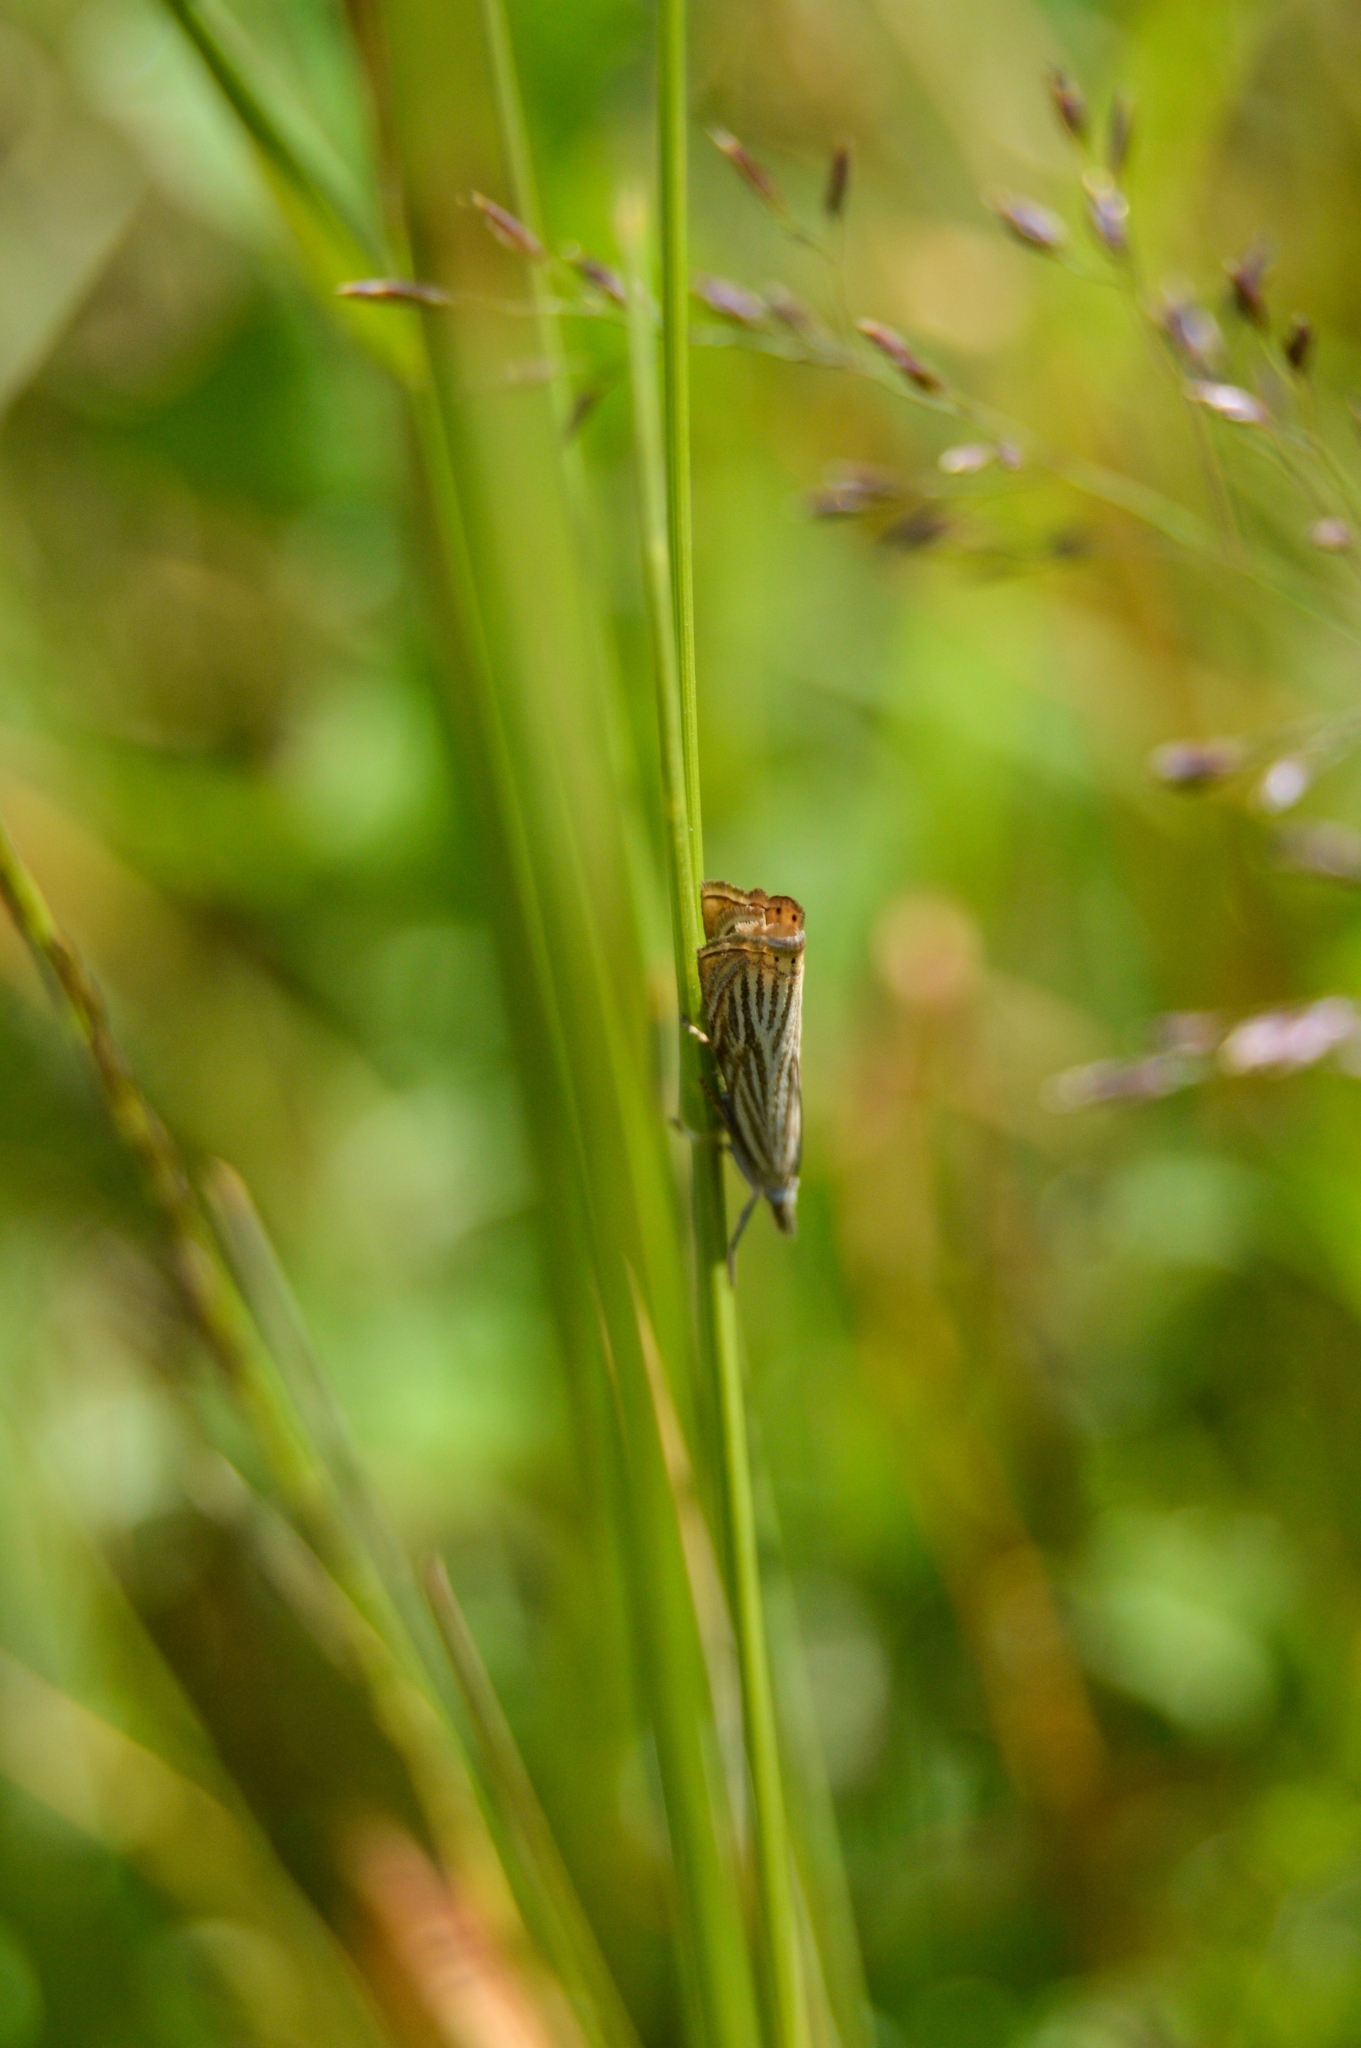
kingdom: Animalia
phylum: Arthropoda
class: Insecta
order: Lepidoptera
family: Crambidae
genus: Chrysoteuchia
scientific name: Chrysoteuchia culmella
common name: Garden grass-veneer
